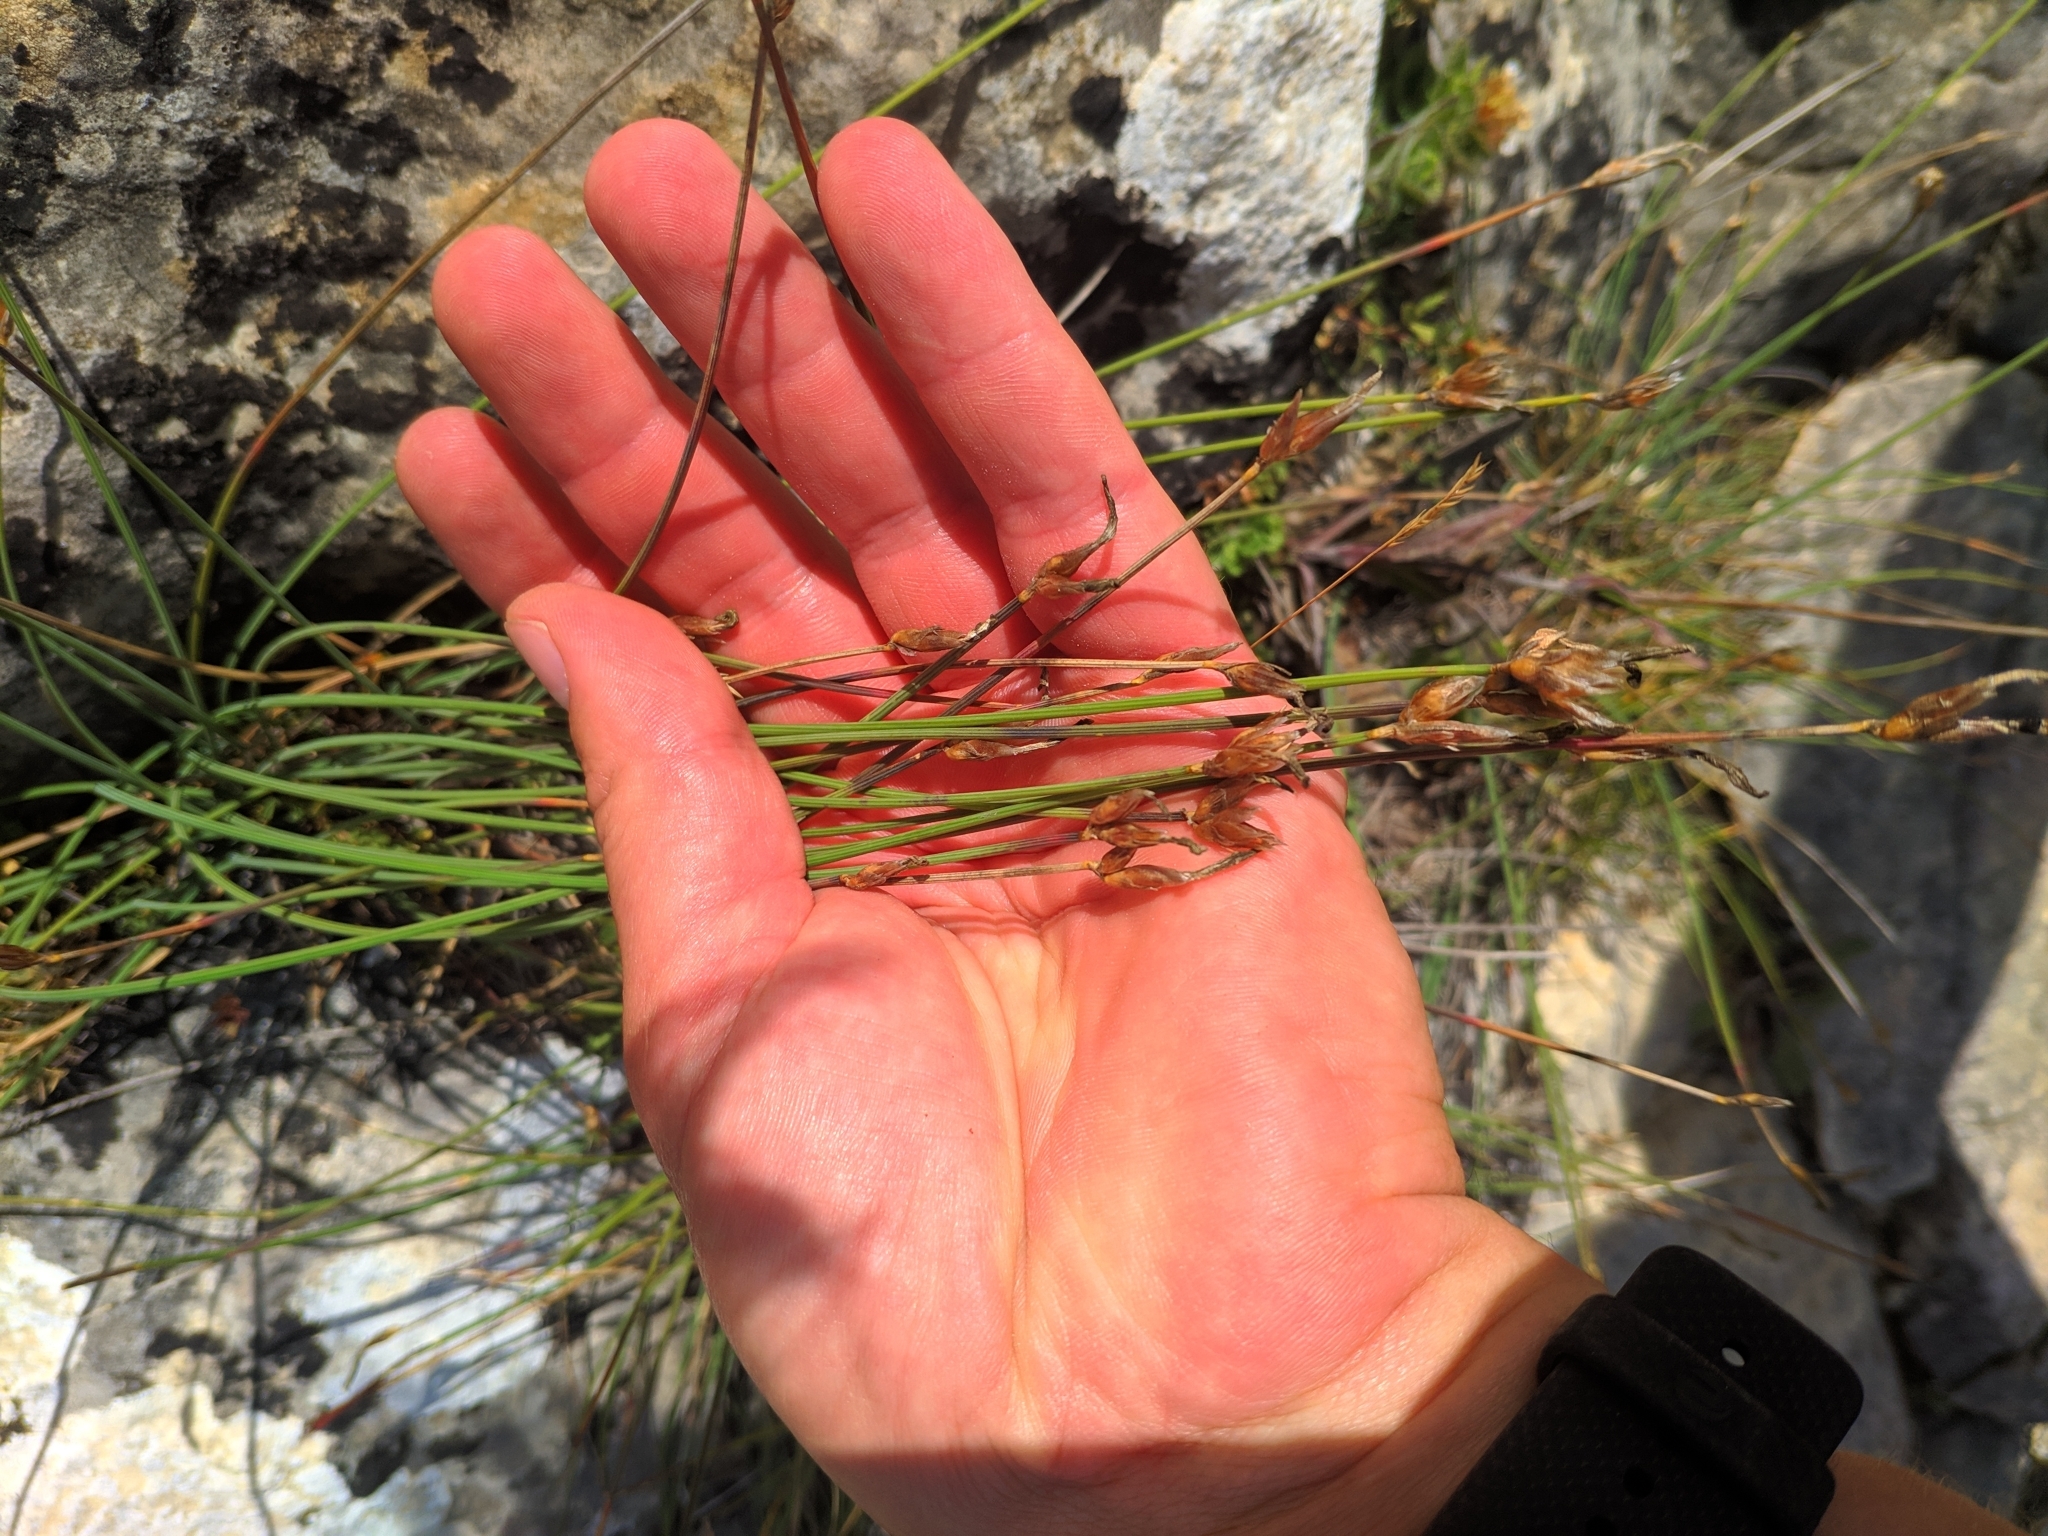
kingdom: Plantae
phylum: Tracheophyta
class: Liliopsida
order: Asparagales
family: Asparagaceae
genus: Aphyllanthes
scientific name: Aphyllanthes monspeliensis
